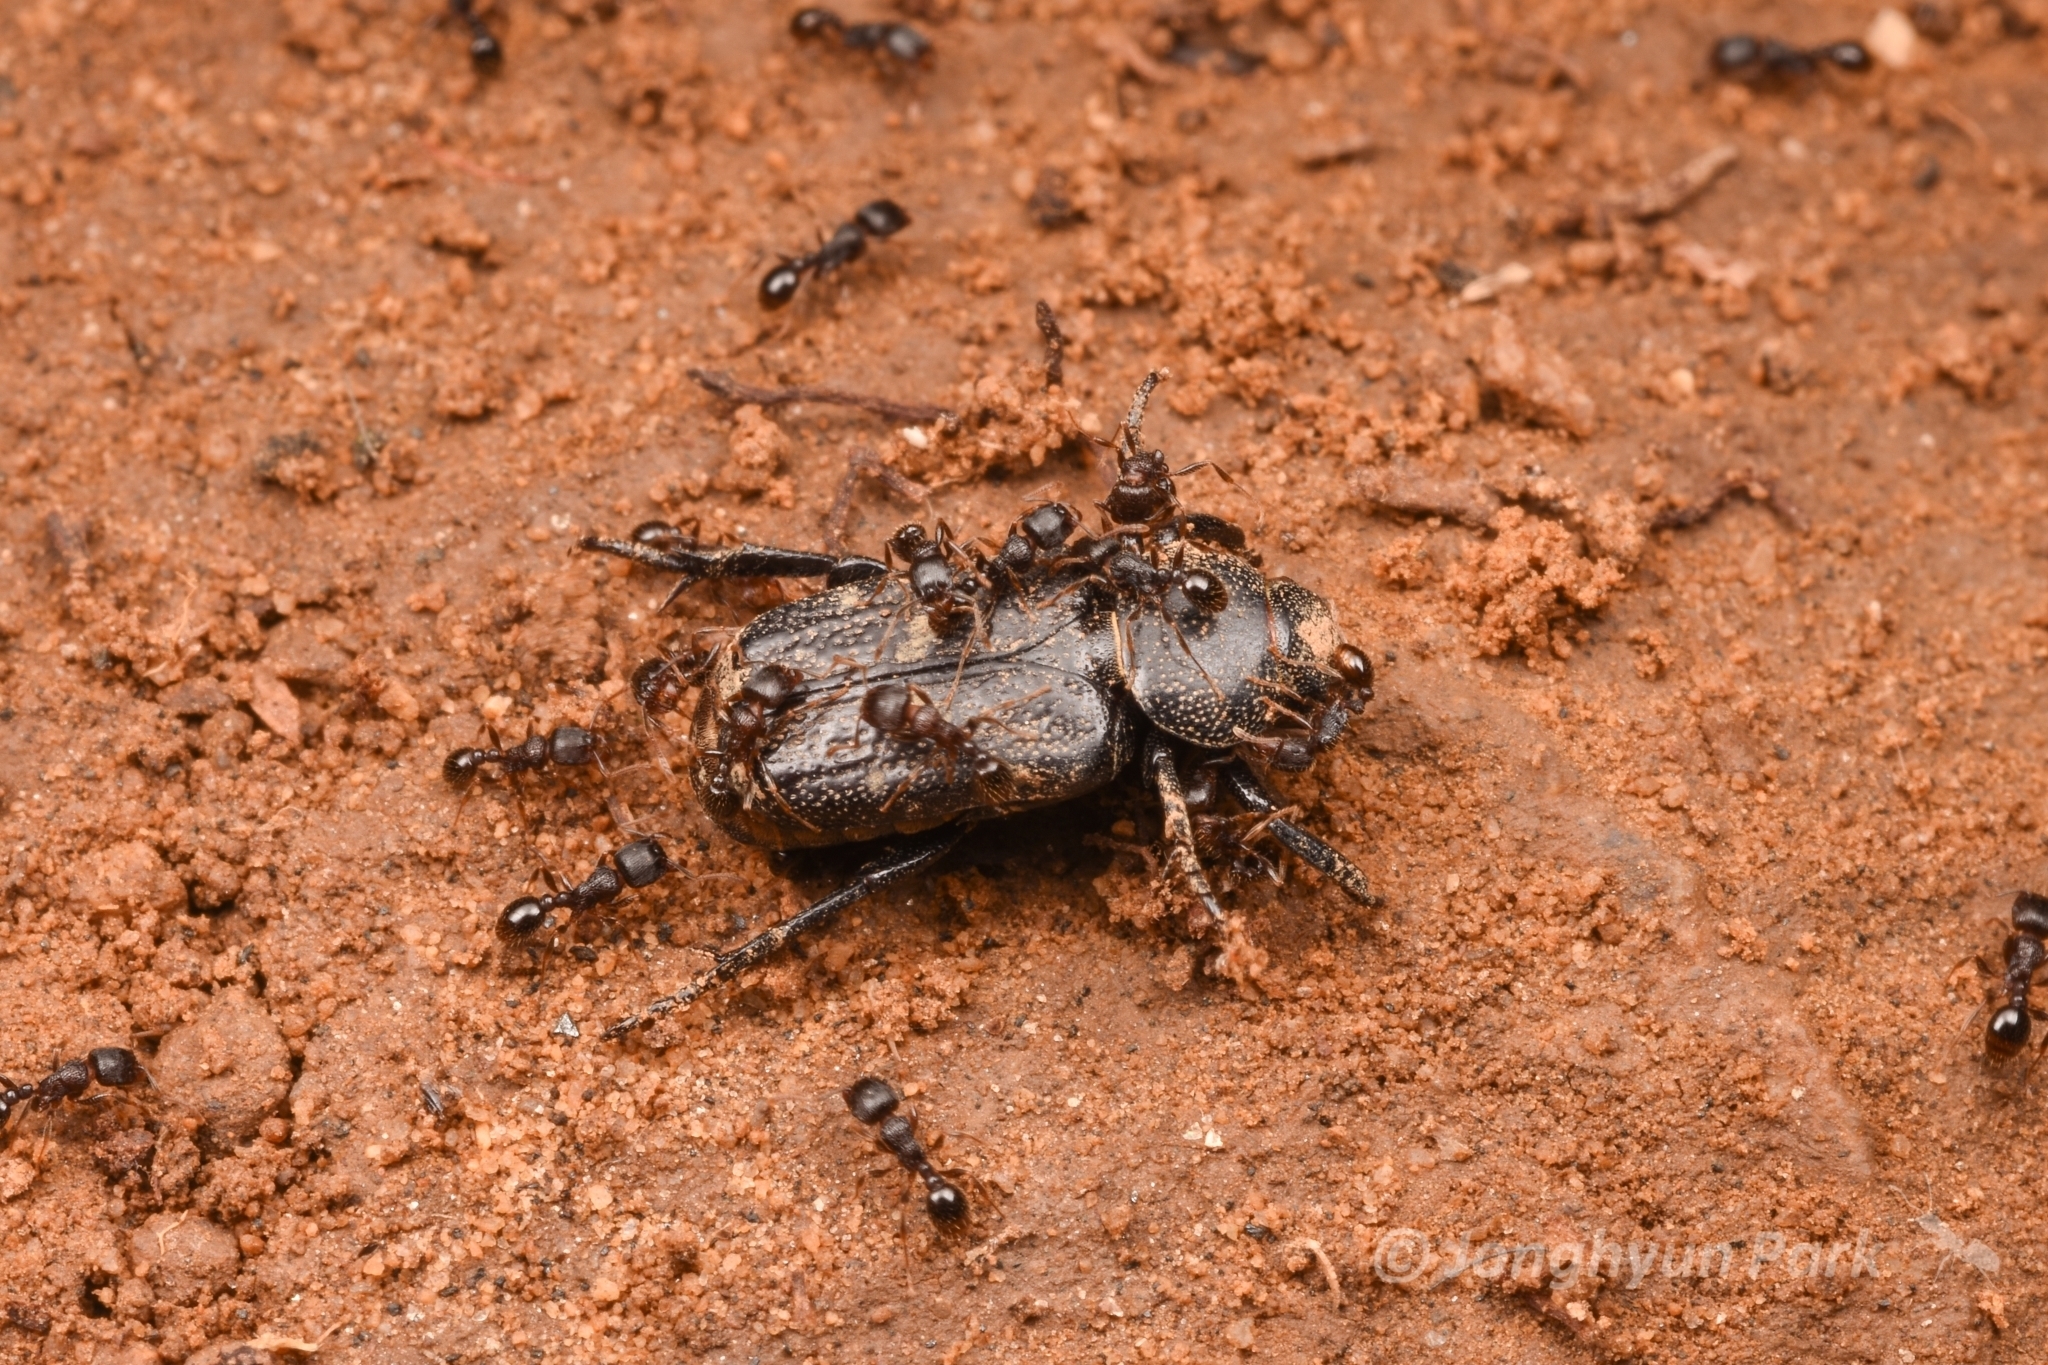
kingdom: Animalia
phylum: Arthropoda
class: Insecta
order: Hymenoptera
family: Formicidae
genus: Tetramorium
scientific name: Tetramorium tsushimae
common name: Ant
